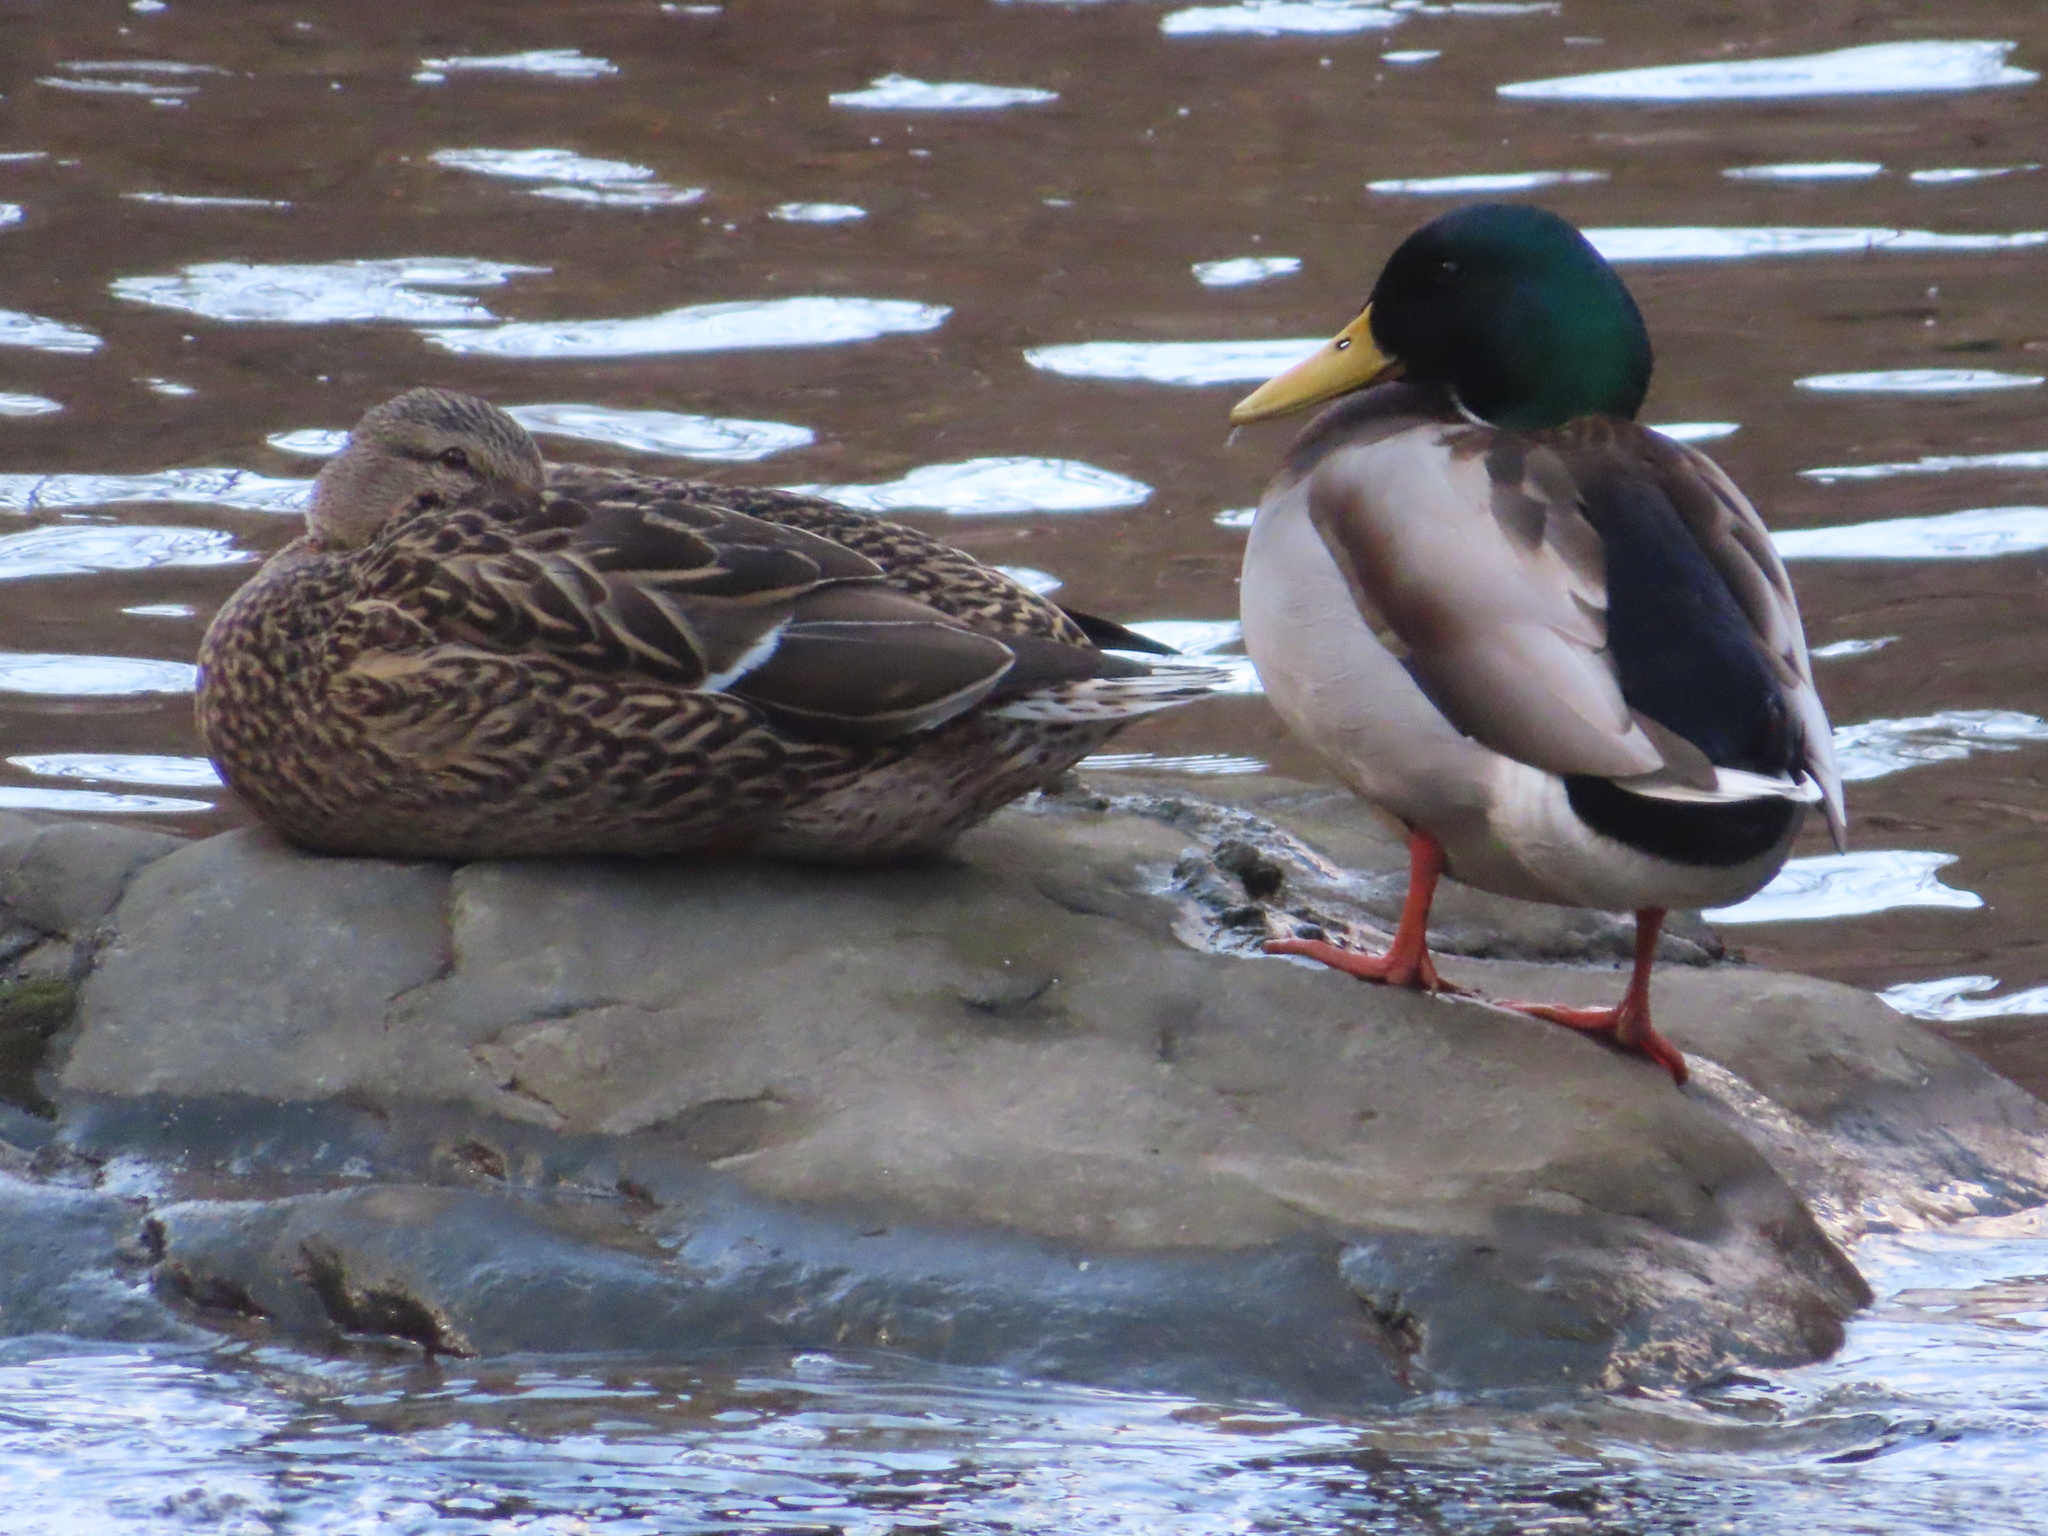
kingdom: Animalia
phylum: Chordata
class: Aves
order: Anseriformes
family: Anatidae
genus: Anas
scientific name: Anas platyrhynchos
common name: Mallard
